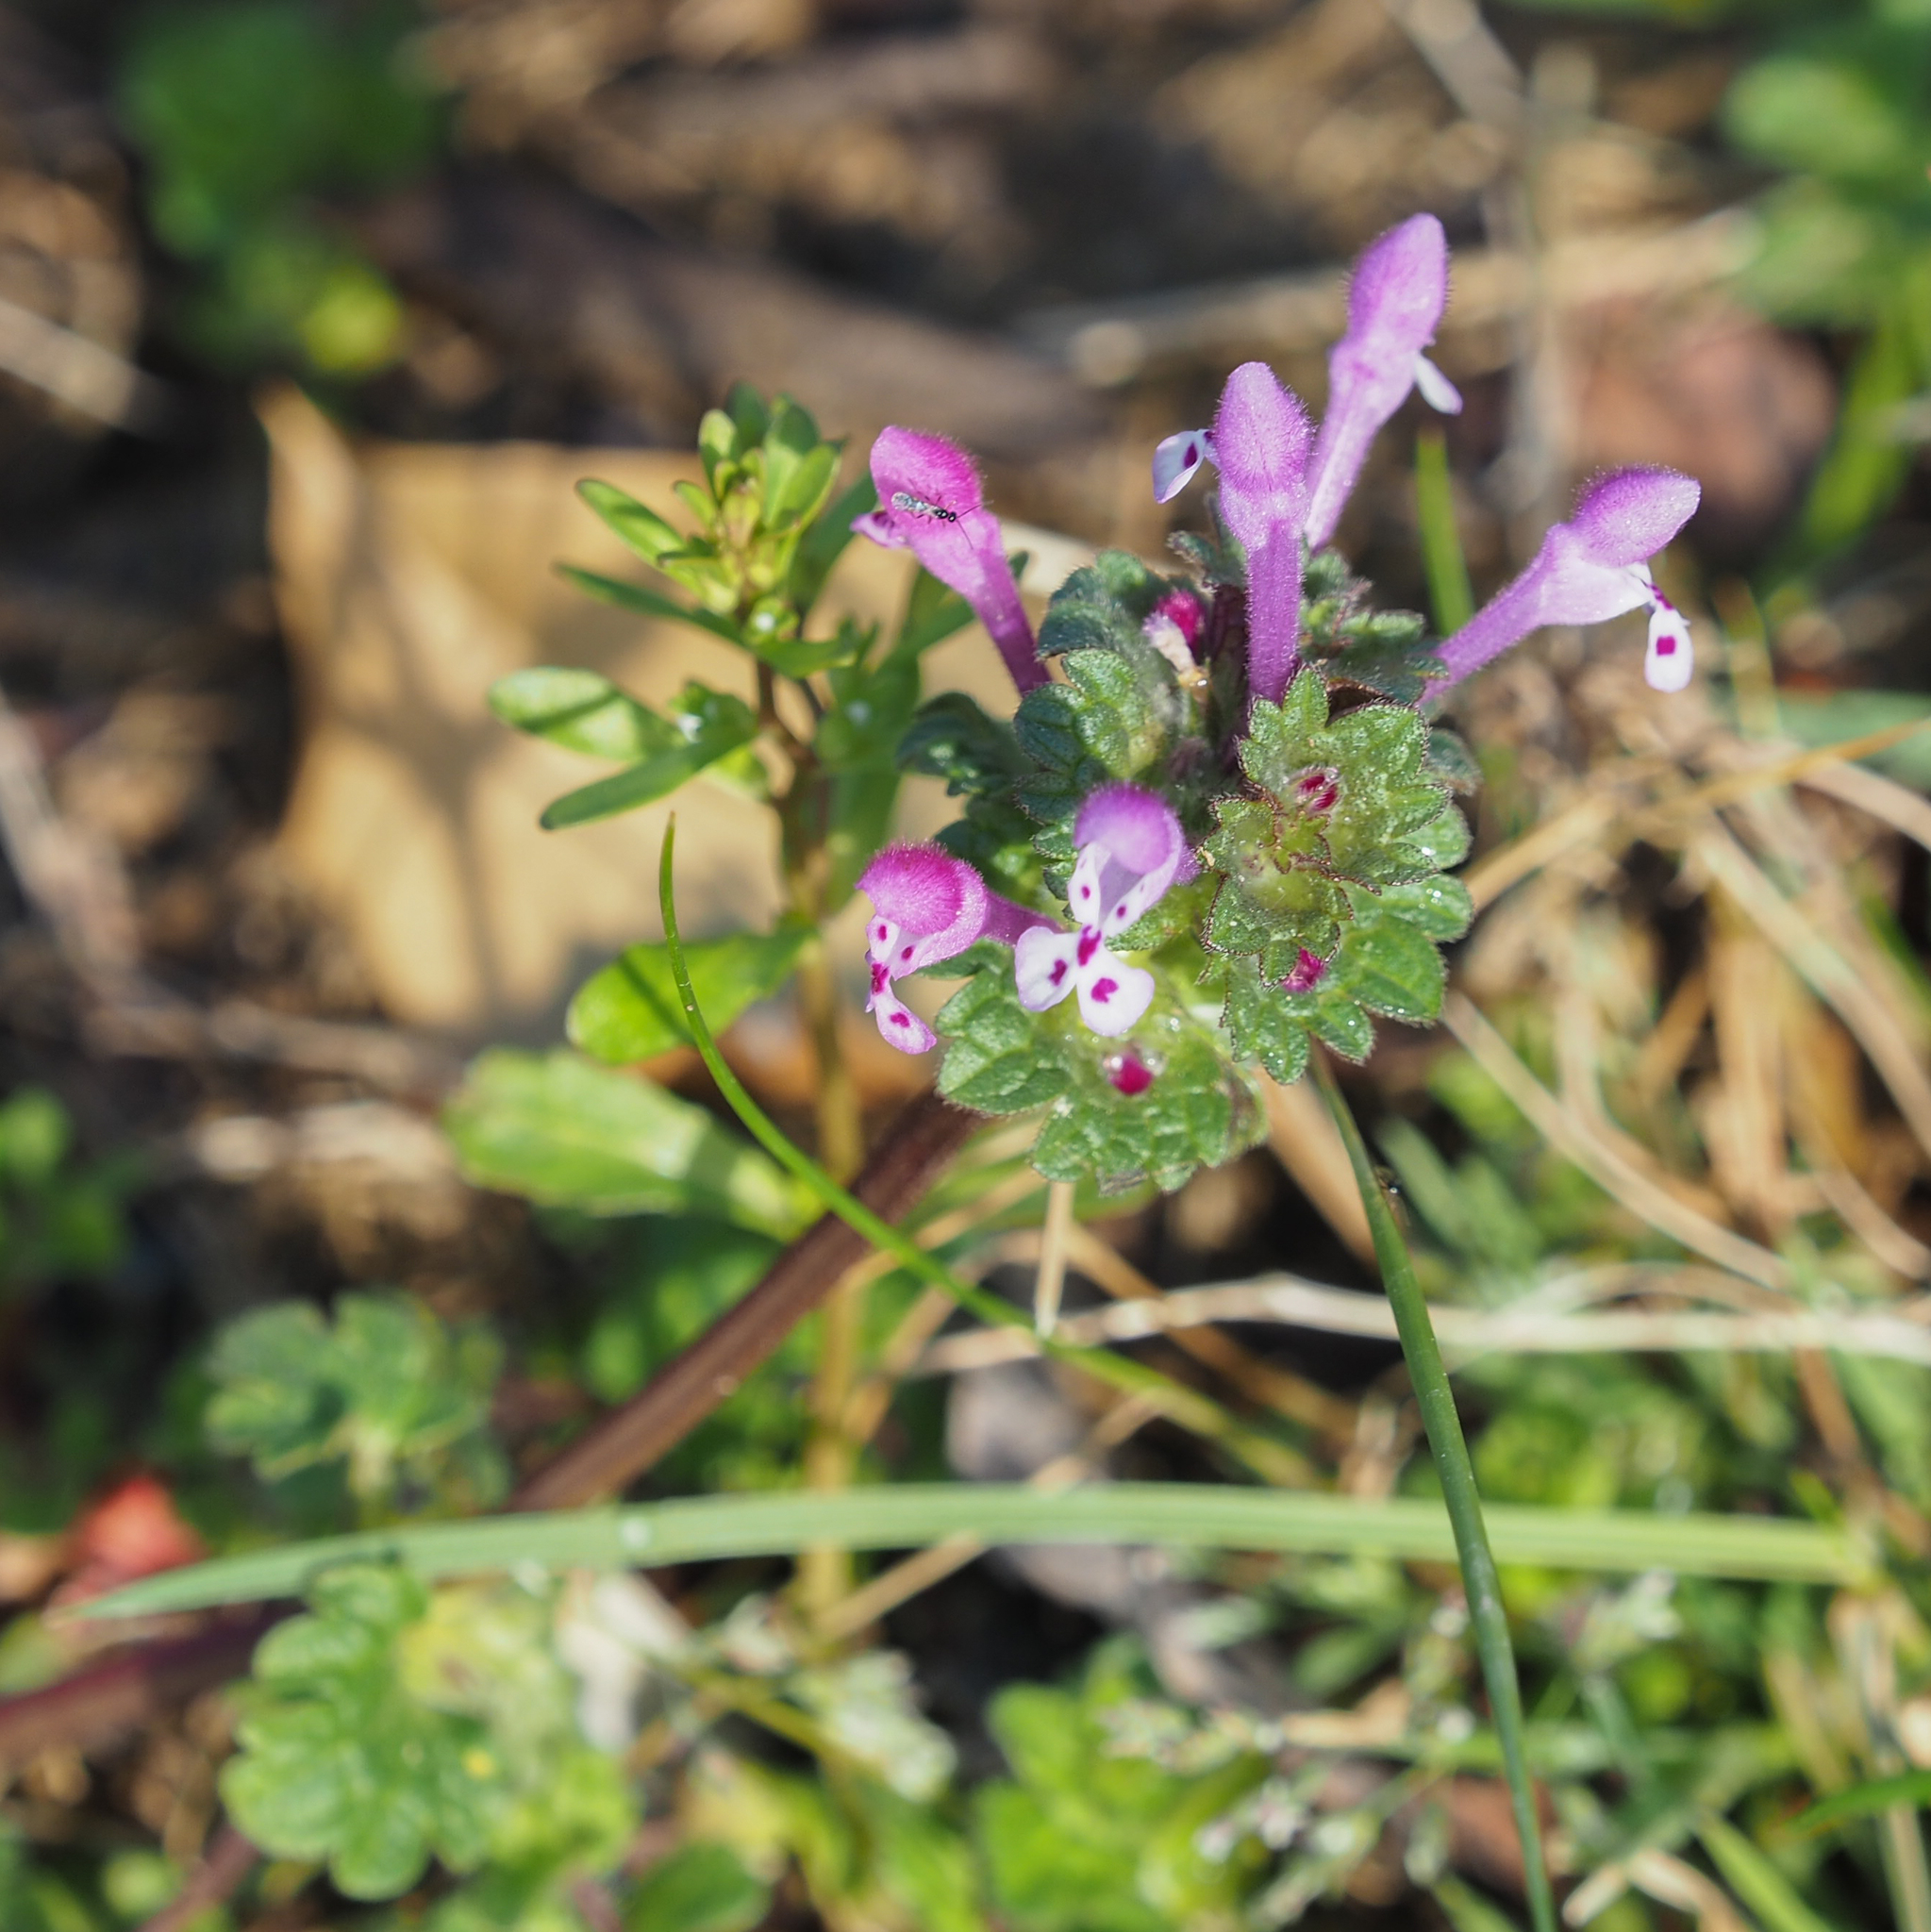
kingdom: Plantae
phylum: Tracheophyta
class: Magnoliopsida
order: Lamiales
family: Lamiaceae
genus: Lamium
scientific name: Lamium amplexicaule
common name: Henbit dead-nettle
